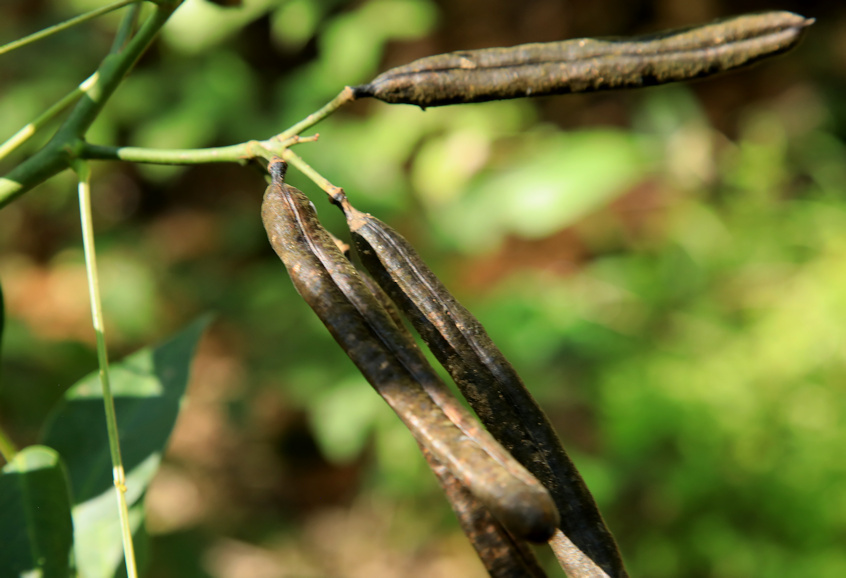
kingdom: Plantae
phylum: Tracheophyta
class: Magnoliopsida
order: Fabales
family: Fabaceae
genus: Senna
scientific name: Senna septemtrionalis
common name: Arsenic bush
